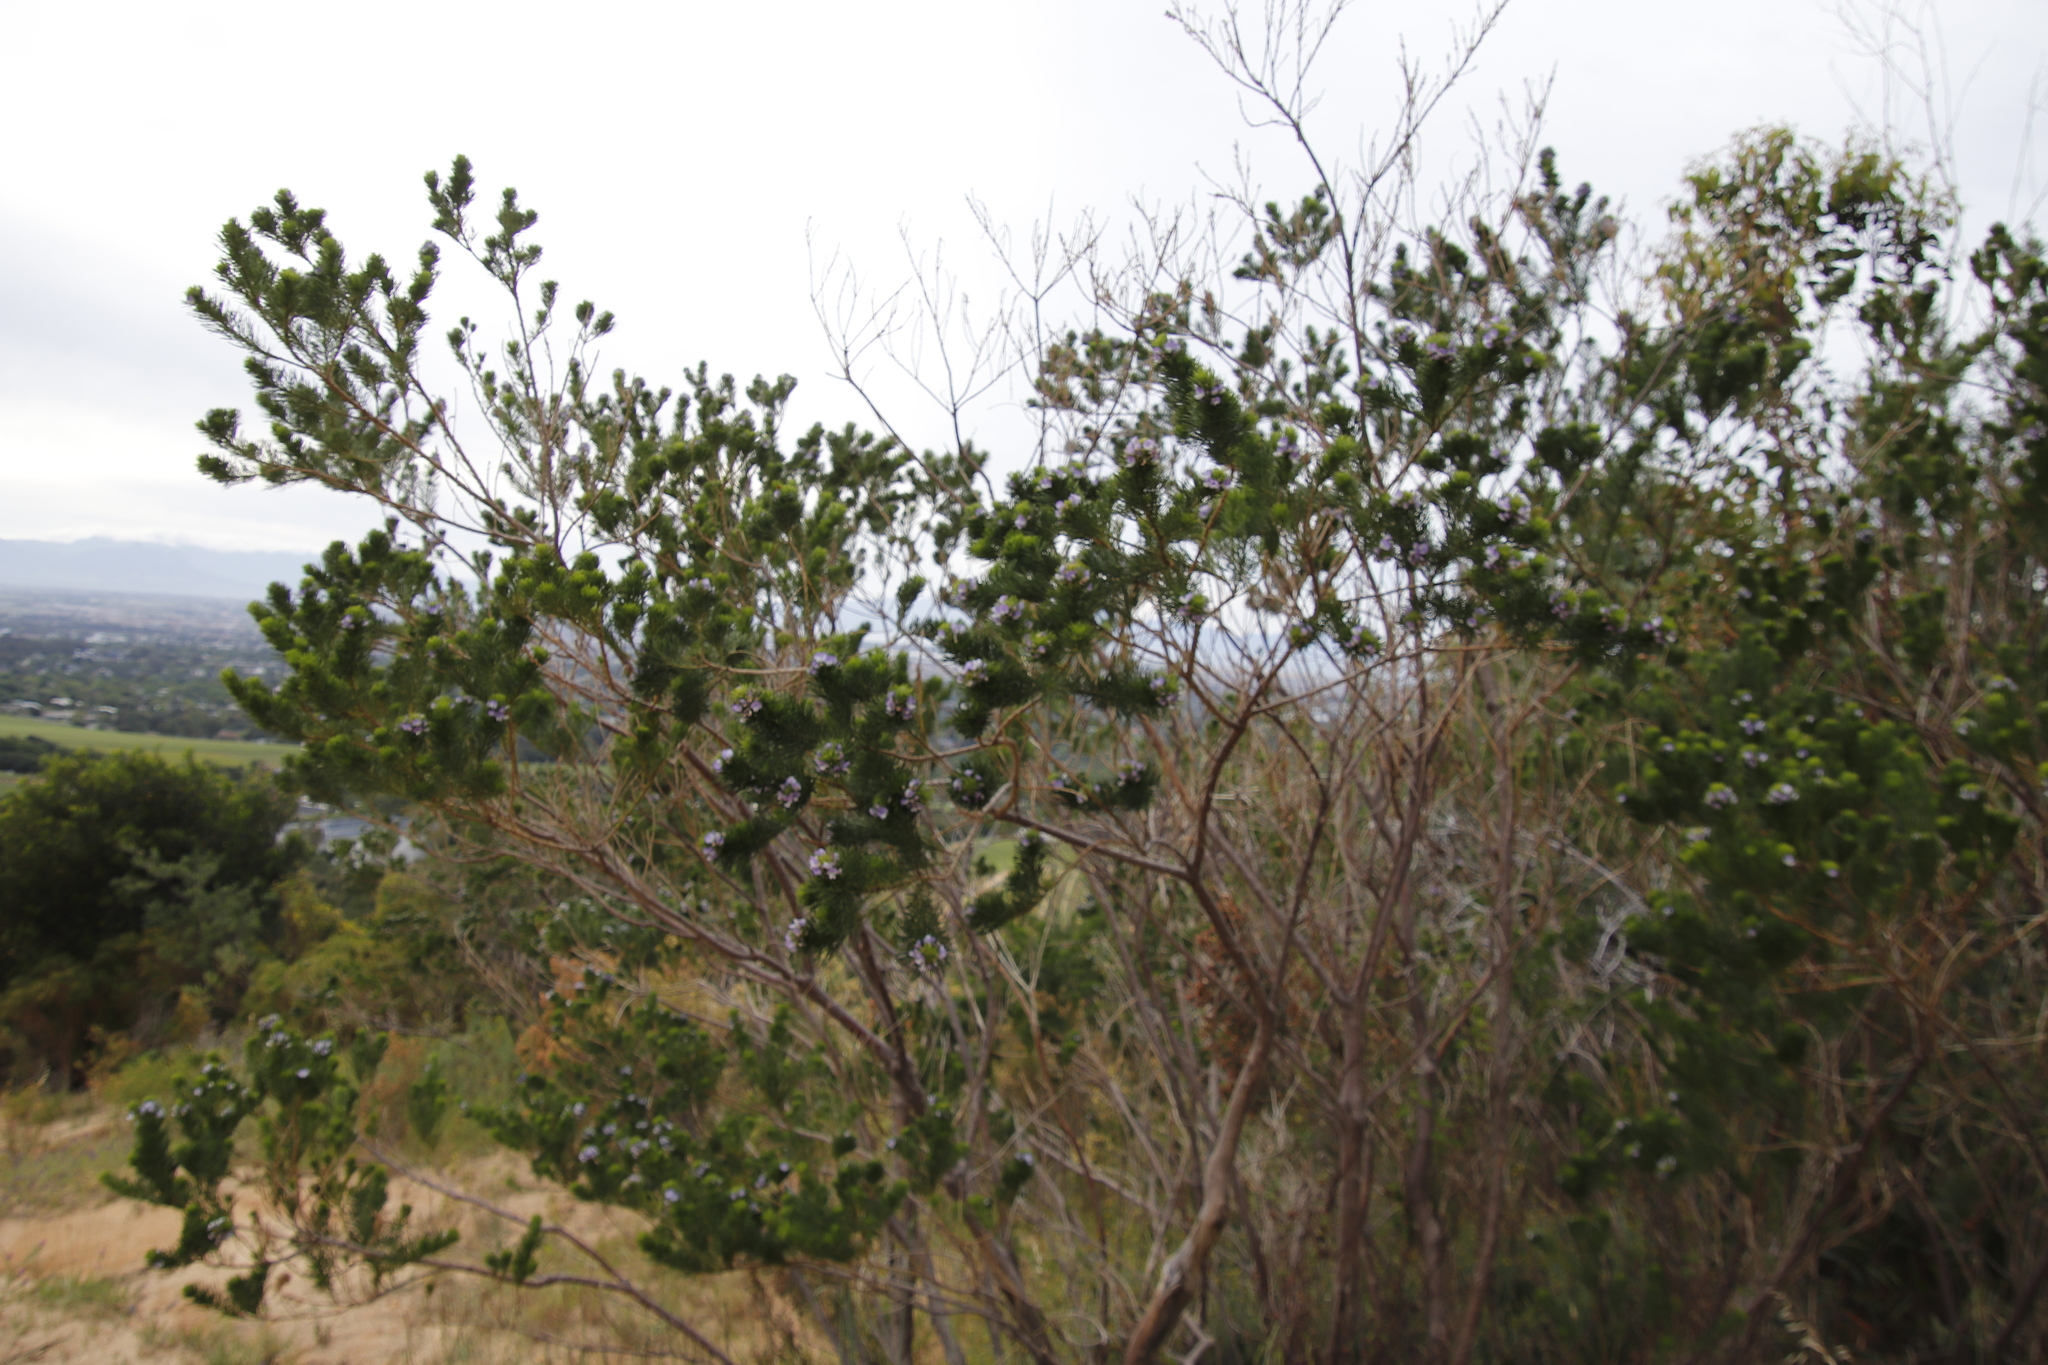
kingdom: Plantae
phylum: Tracheophyta
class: Magnoliopsida
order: Fabales
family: Fabaceae
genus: Psoralea
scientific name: Psoralea pinnata
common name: African scurfpea
